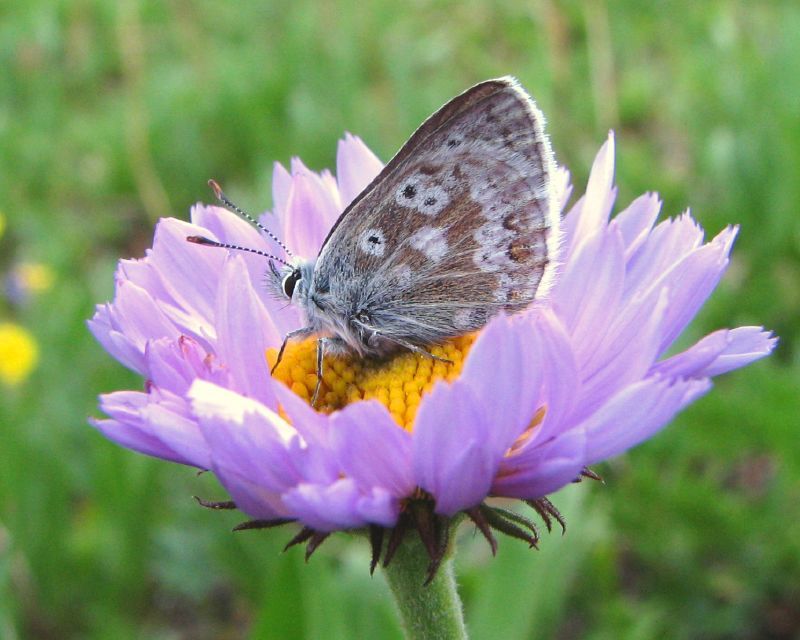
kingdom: Animalia
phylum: Arthropoda
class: Insecta
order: Lepidoptera
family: Lycaenidae
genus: Agriades
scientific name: Agriades glandon
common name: Glandon blue
